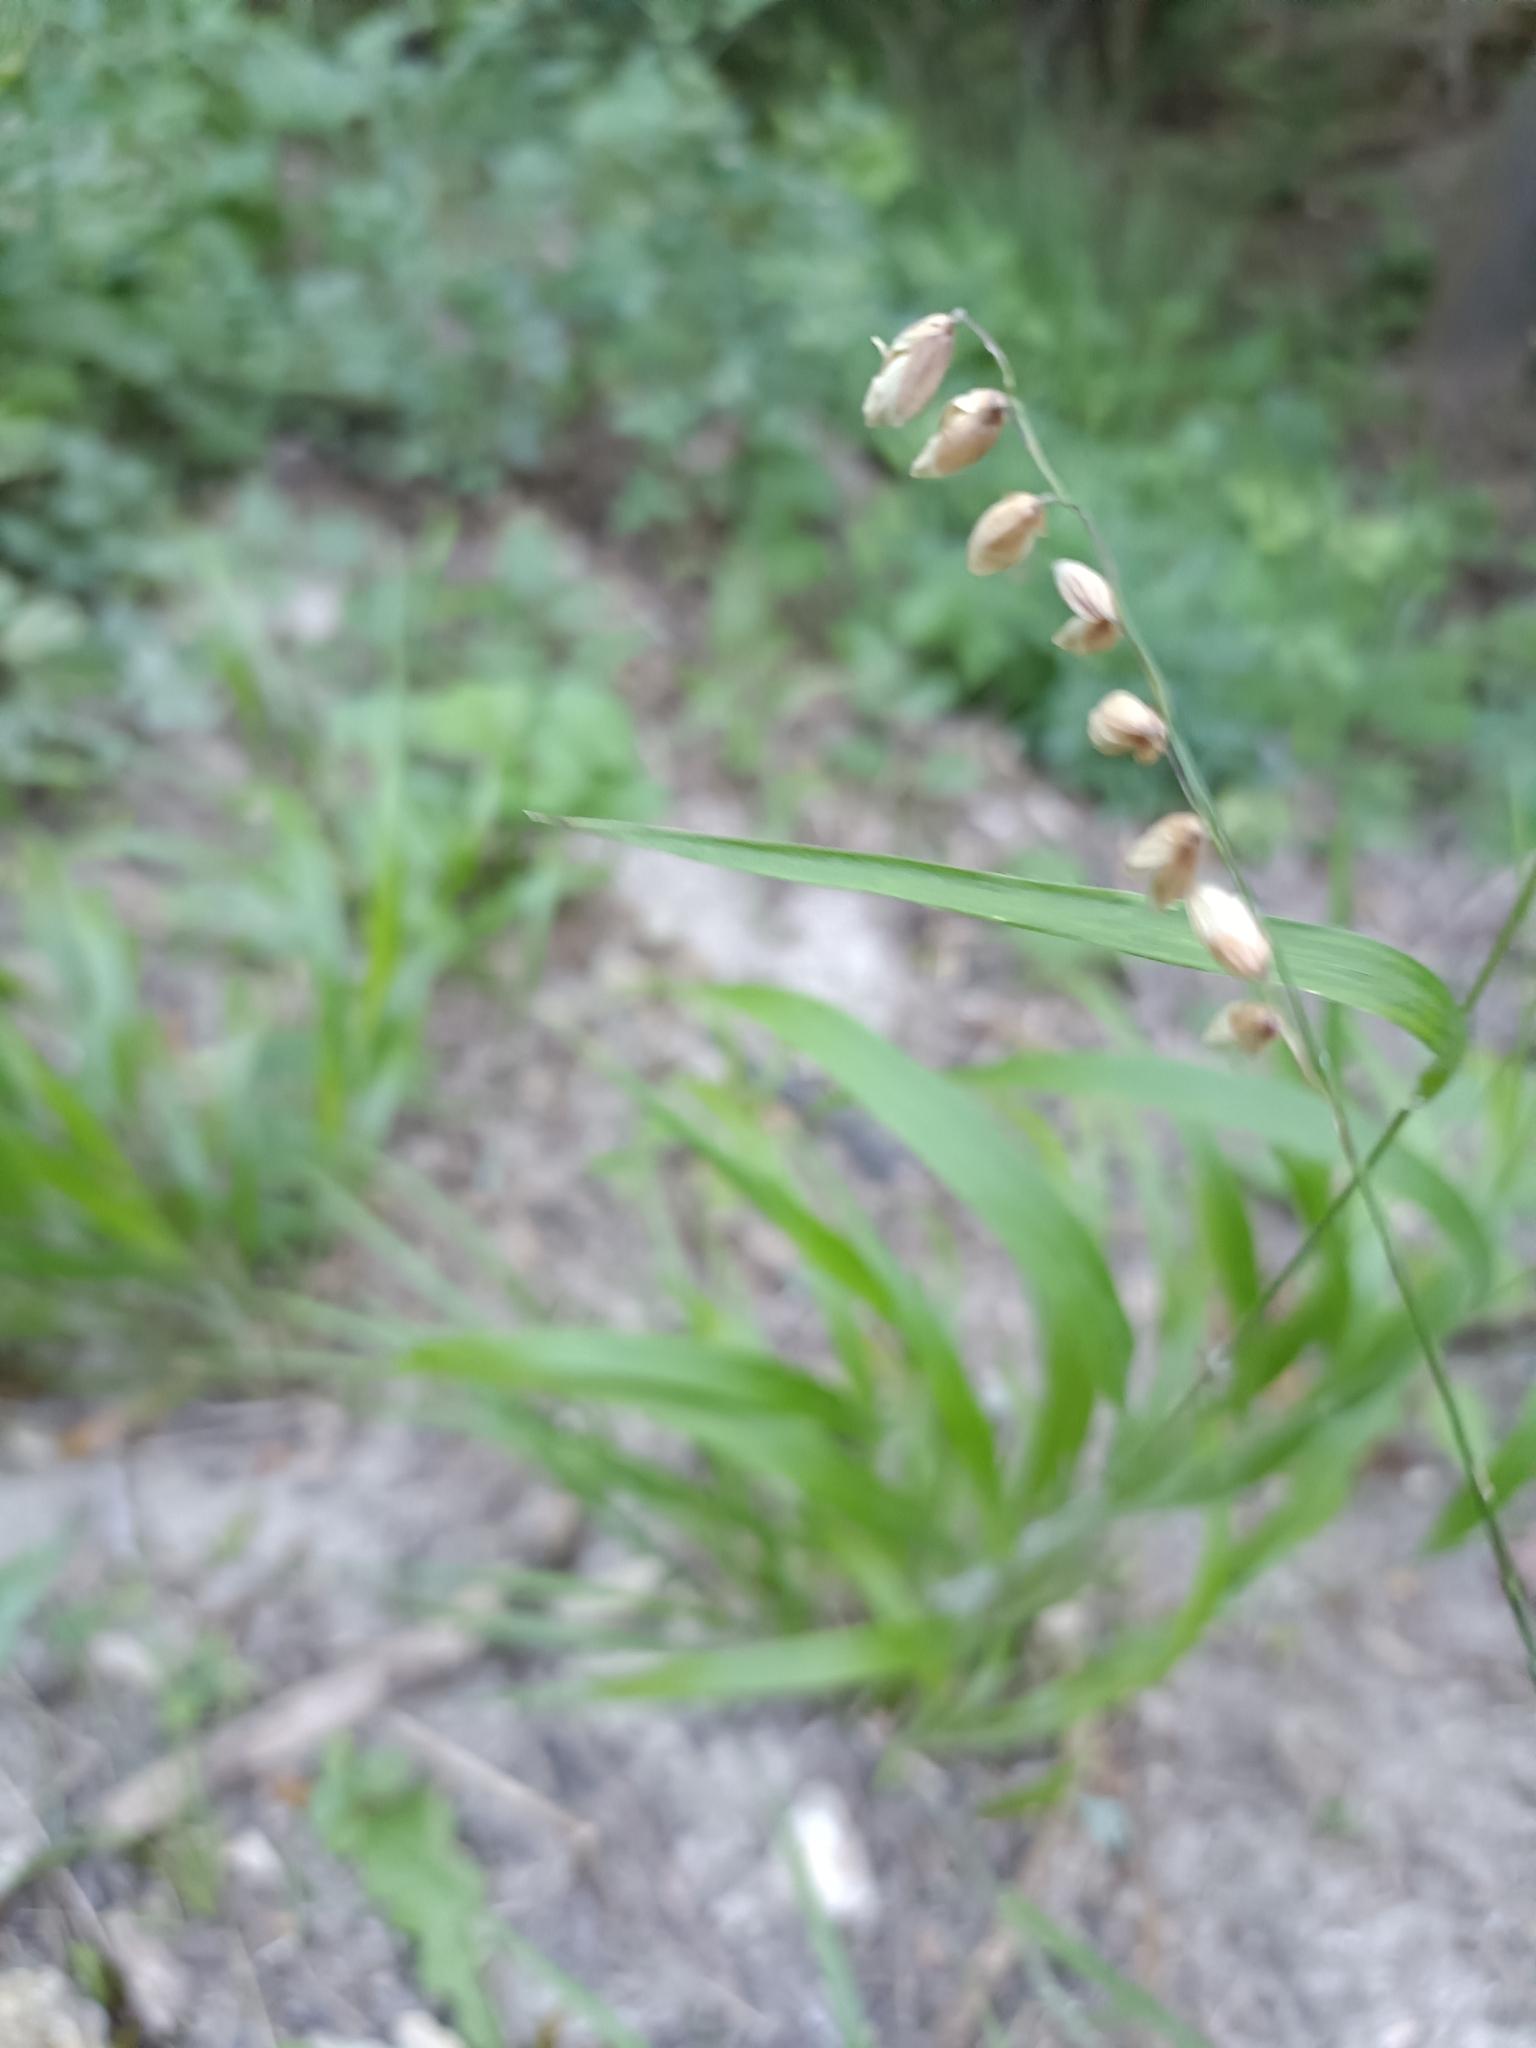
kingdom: Plantae
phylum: Tracheophyta
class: Liliopsida
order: Poales
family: Poaceae
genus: Melica
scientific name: Melica nutans
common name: Mountain melick
